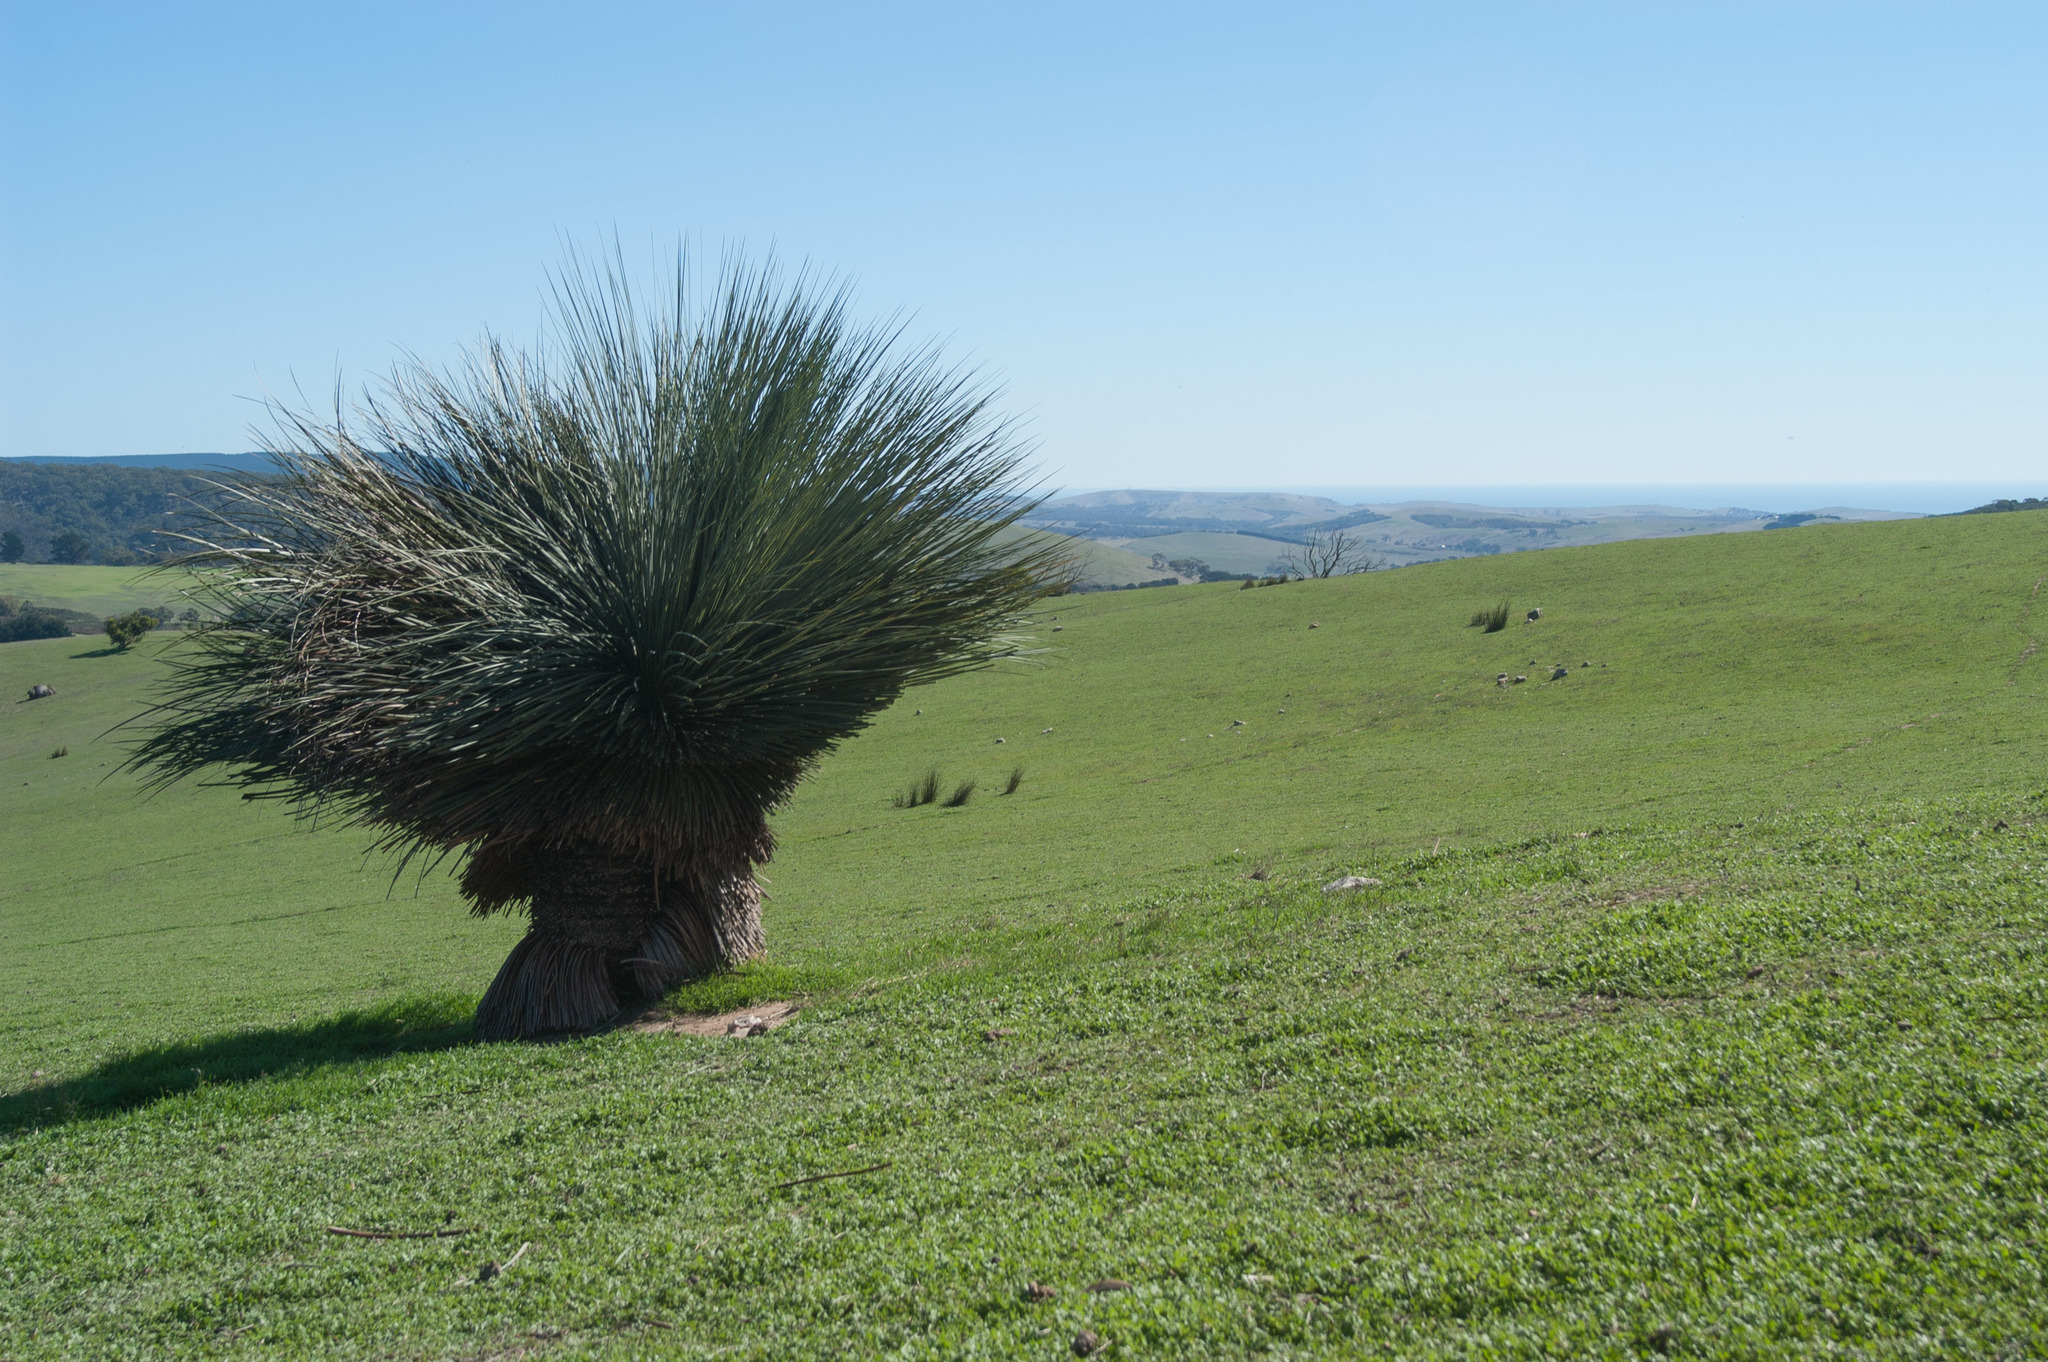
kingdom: Plantae
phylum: Tracheophyta
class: Liliopsida
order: Asparagales
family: Asphodelaceae
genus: Xanthorrhoea
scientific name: Xanthorrhoea semiplana
